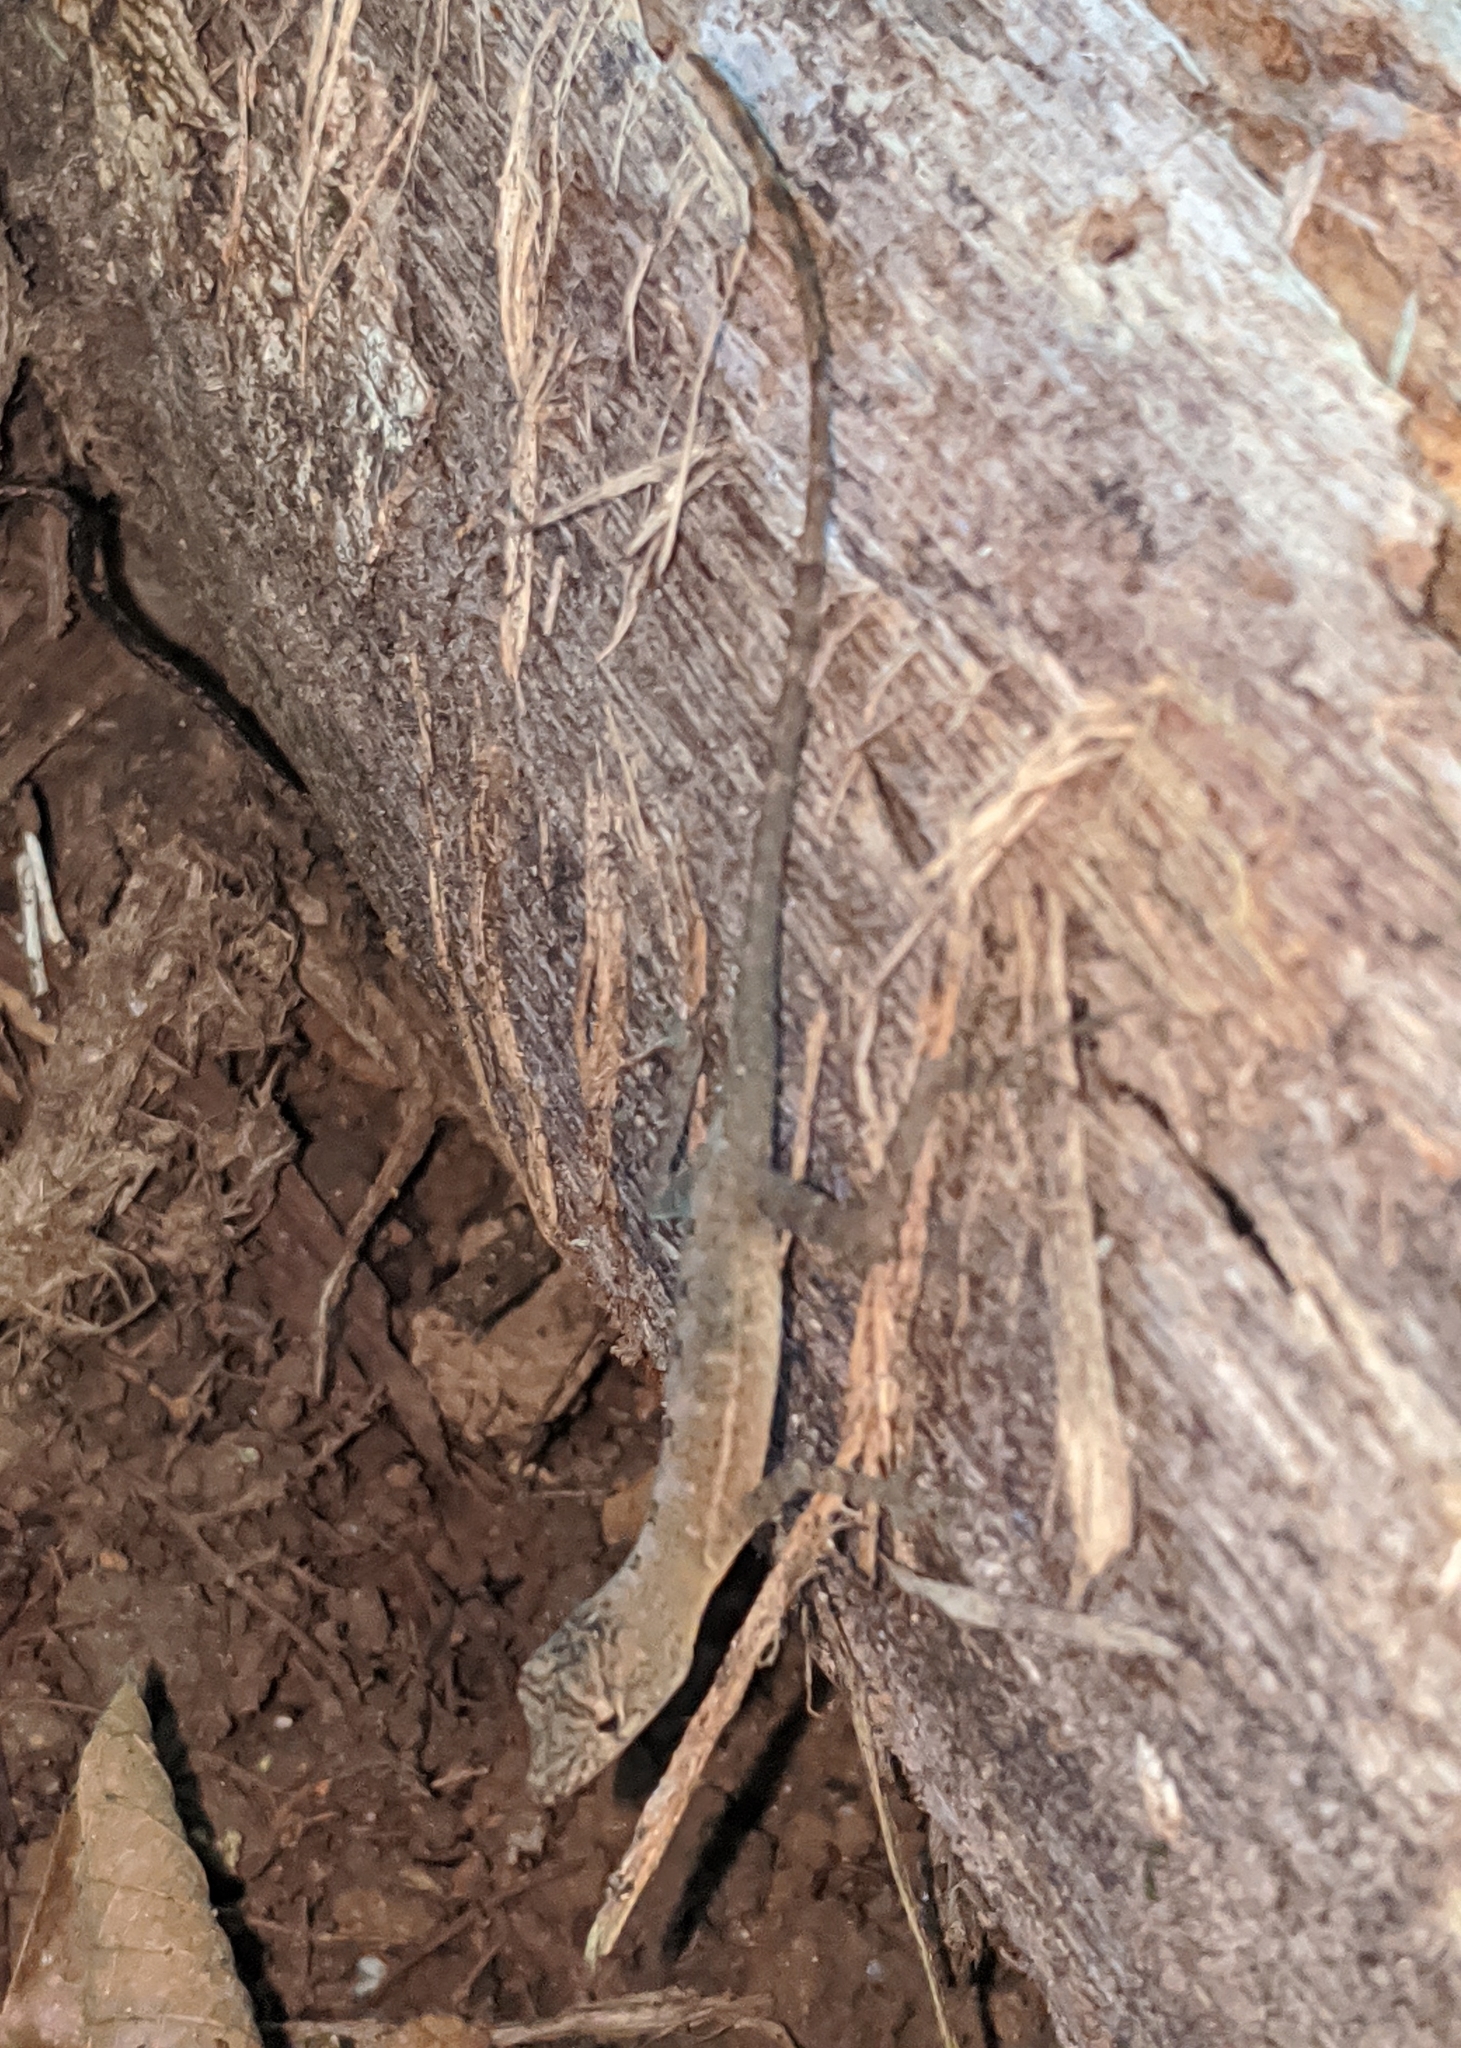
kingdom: Animalia
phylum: Chordata
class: Squamata
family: Dactyloidae
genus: Anolis
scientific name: Anolis polylepis
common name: Many-scaled anole
